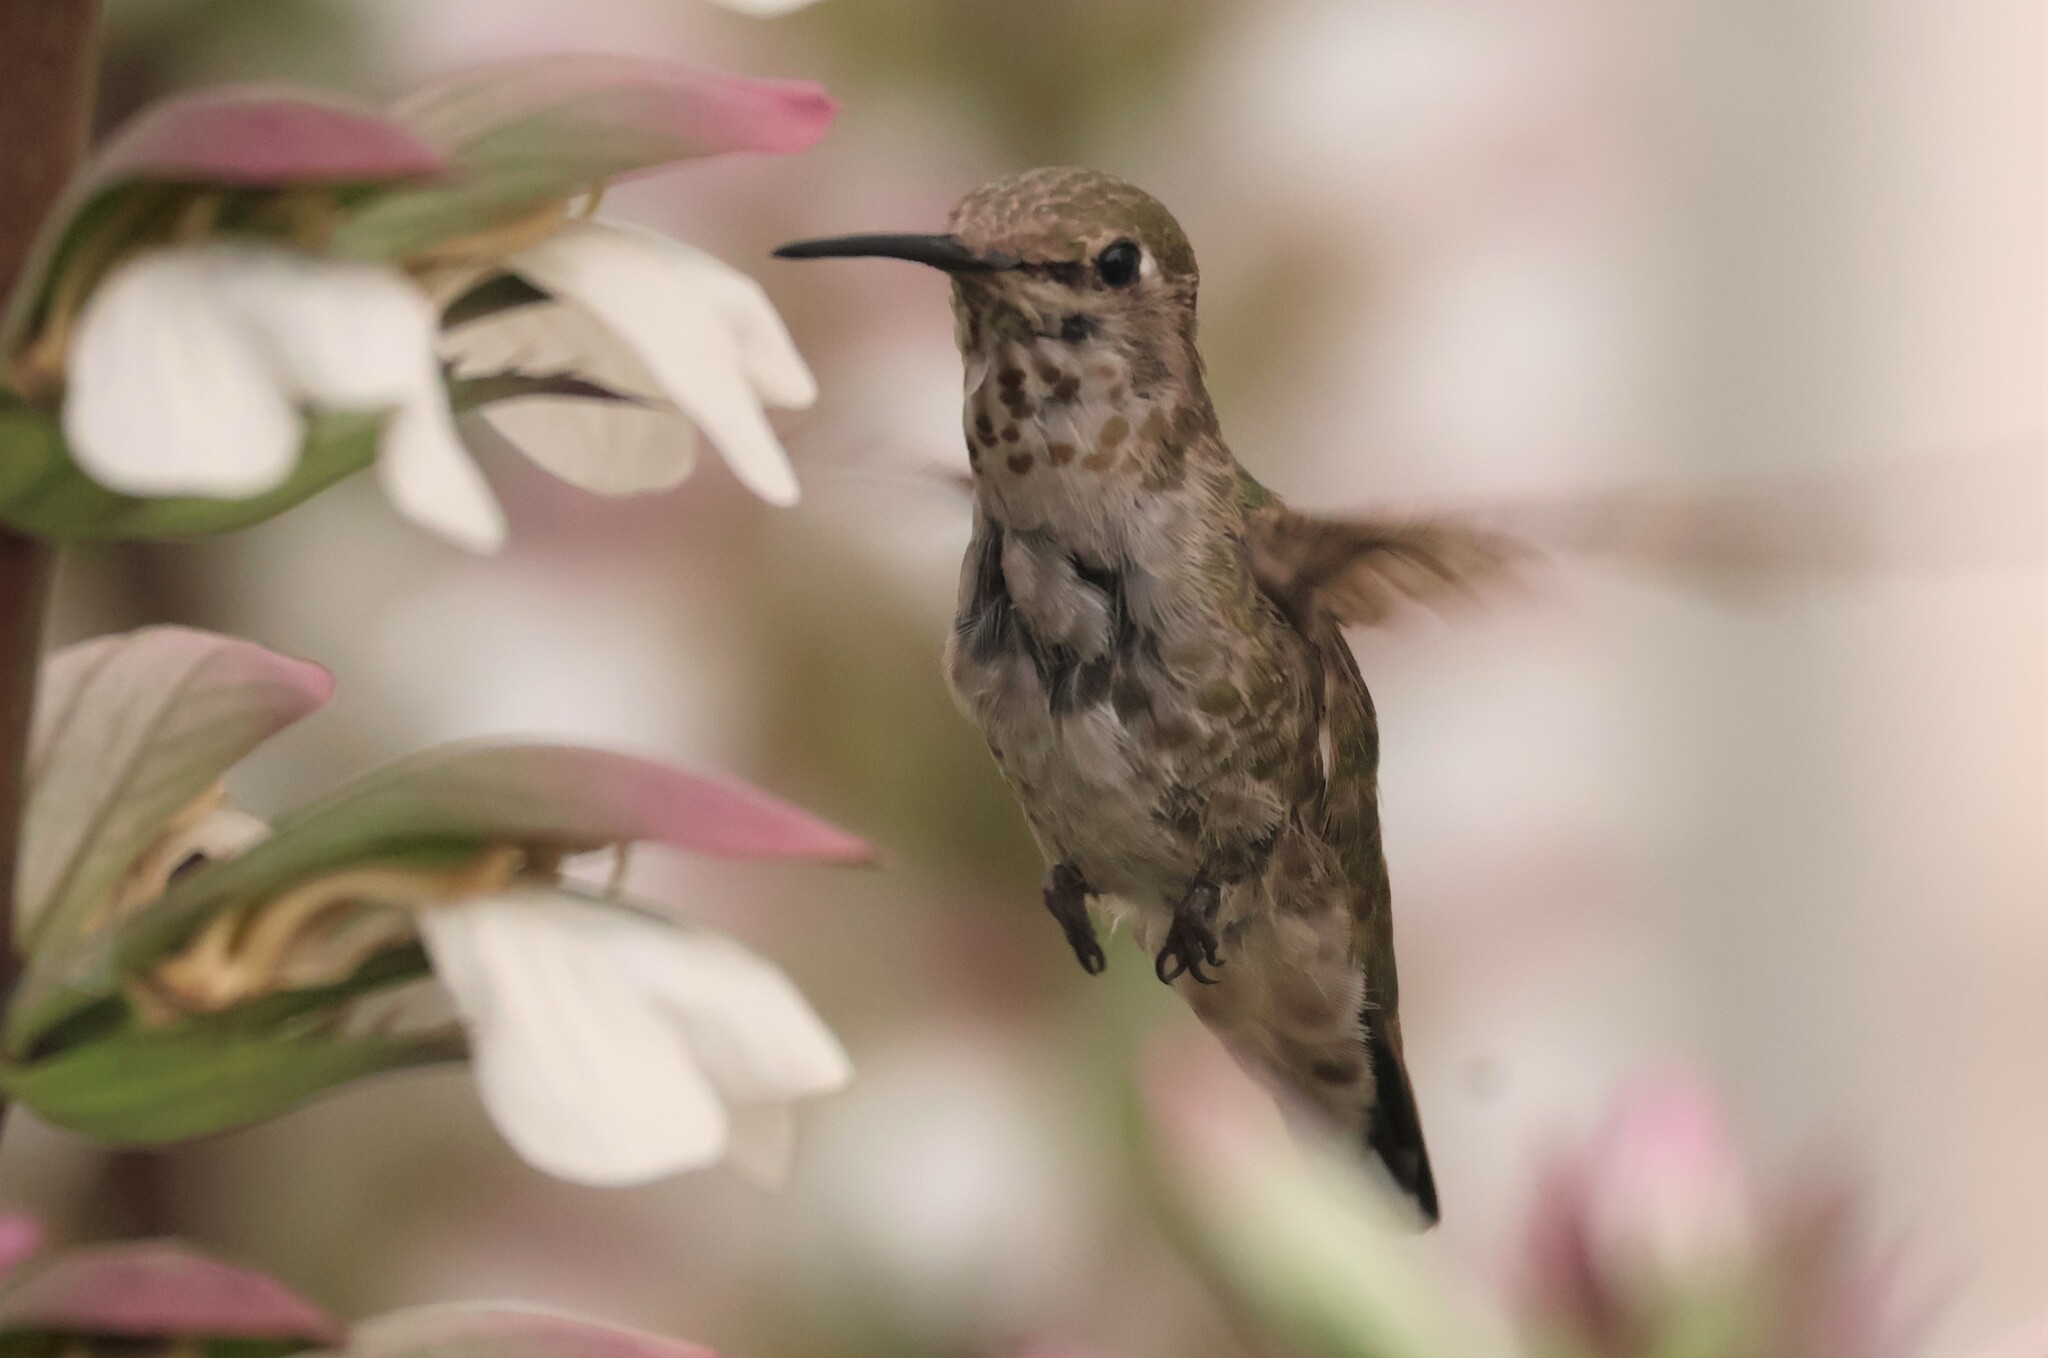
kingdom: Animalia
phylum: Chordata
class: Aves
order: Apodiformes
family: Trochilidae
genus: Calypte
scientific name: Calypte anna
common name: Anna's hummingbird
